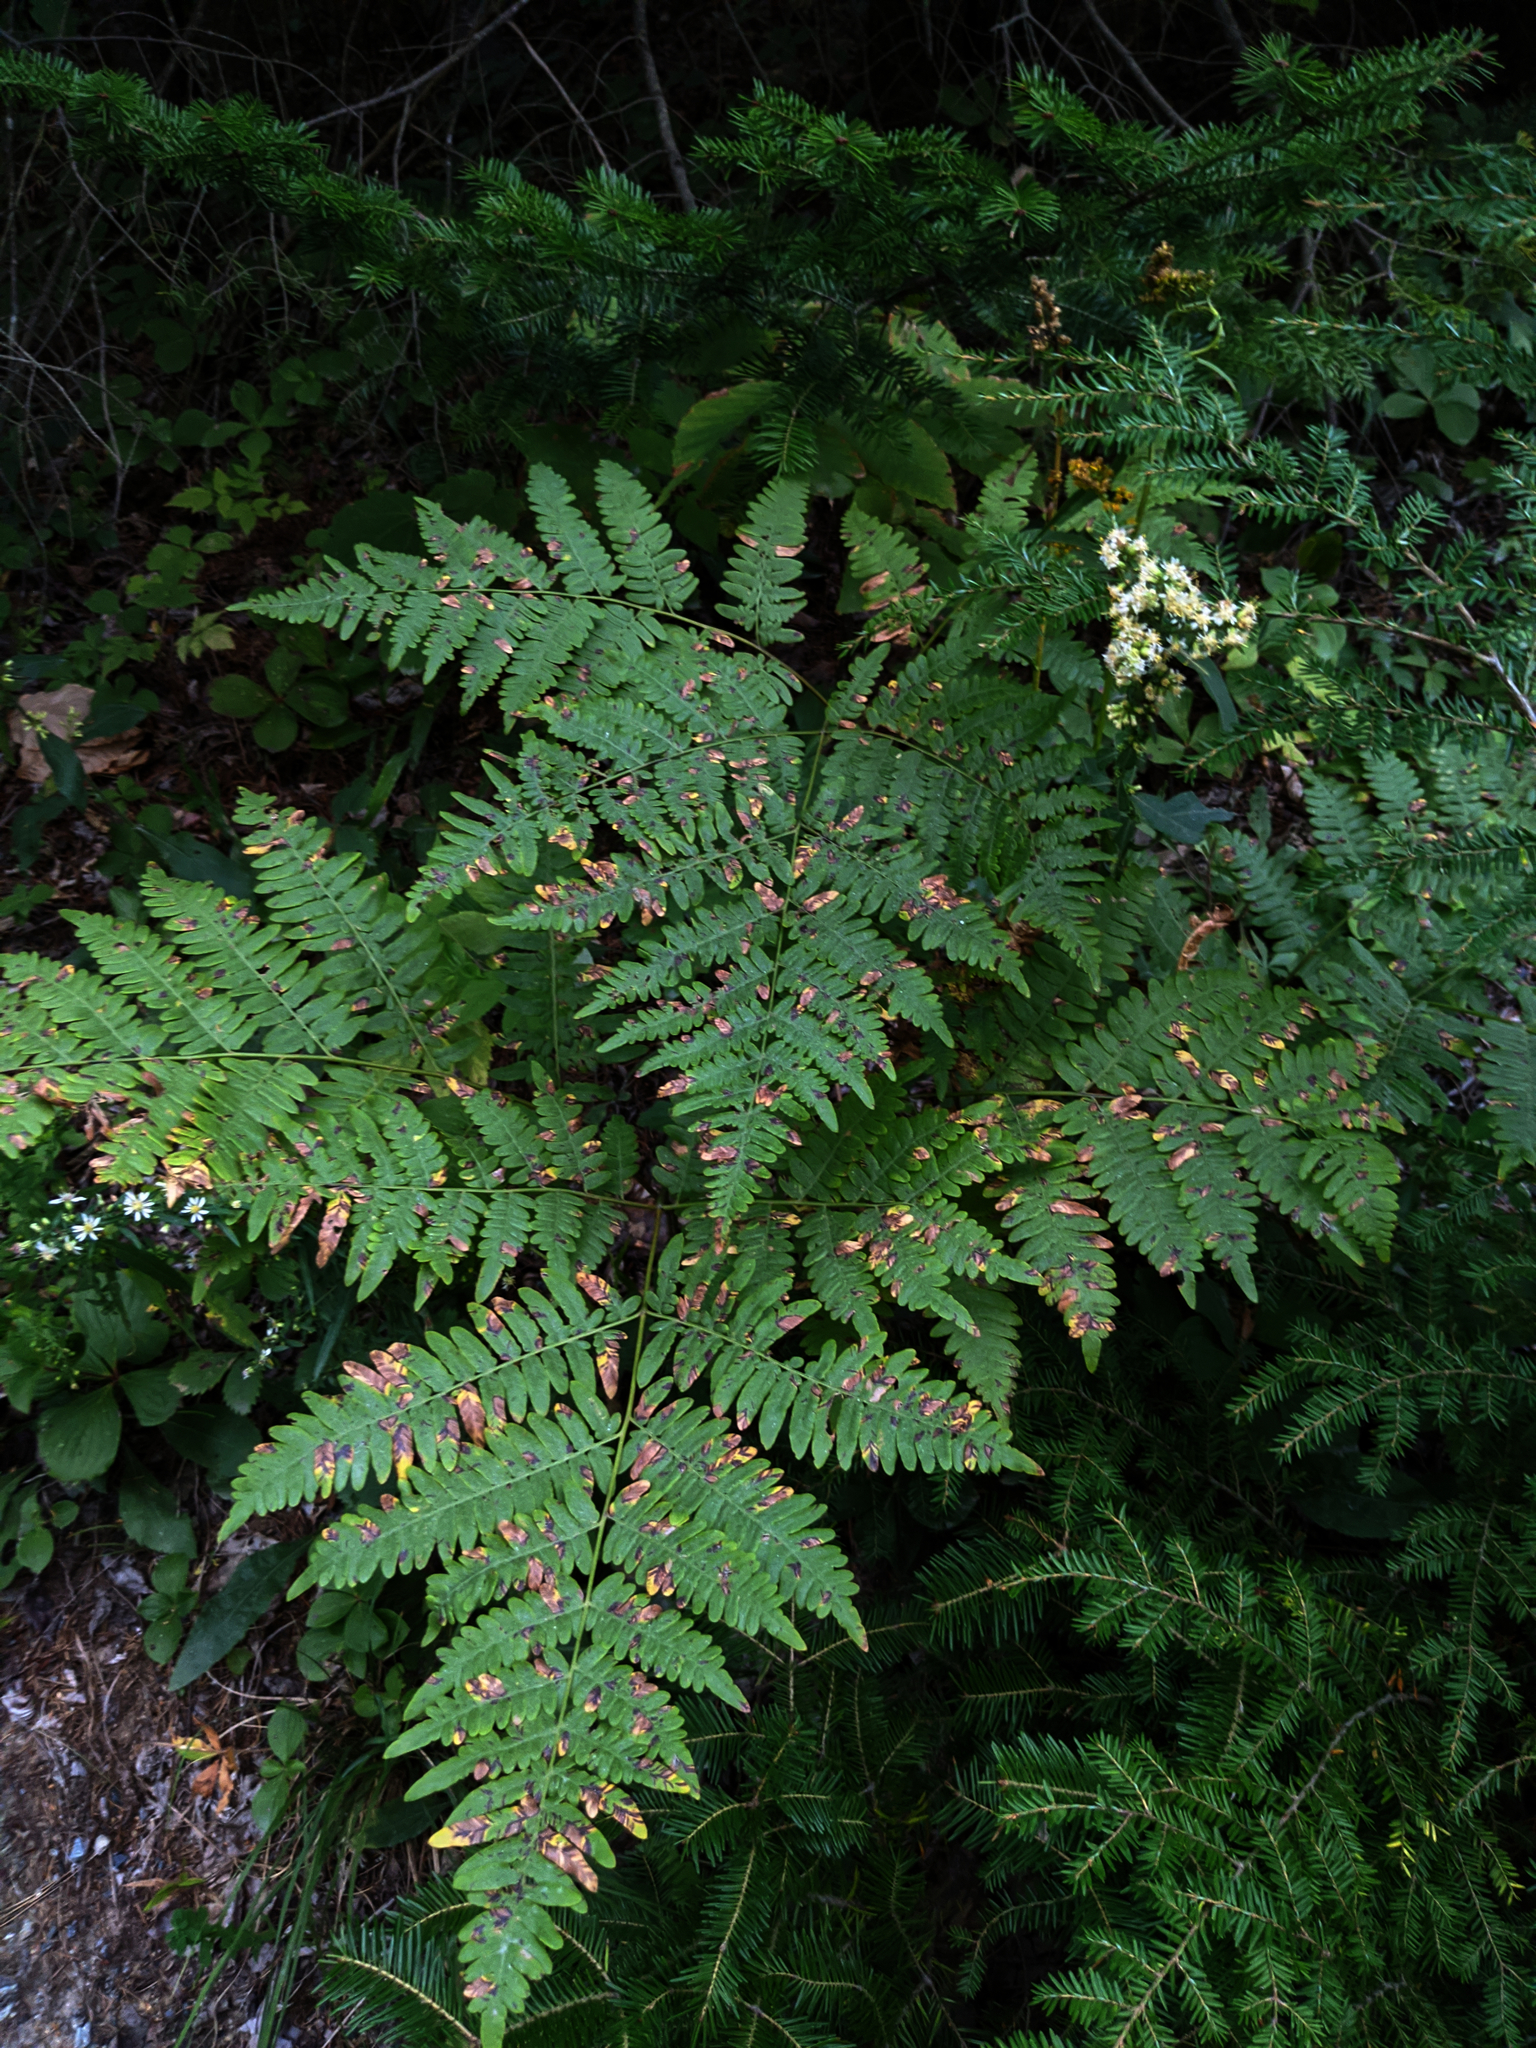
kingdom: Plantae
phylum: Tracheophyta
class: Polypodiopsida
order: Polypodiales
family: Dennstaedtiaceae
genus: Pteridium
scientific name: Pteridium aquilinum
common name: Bracken
